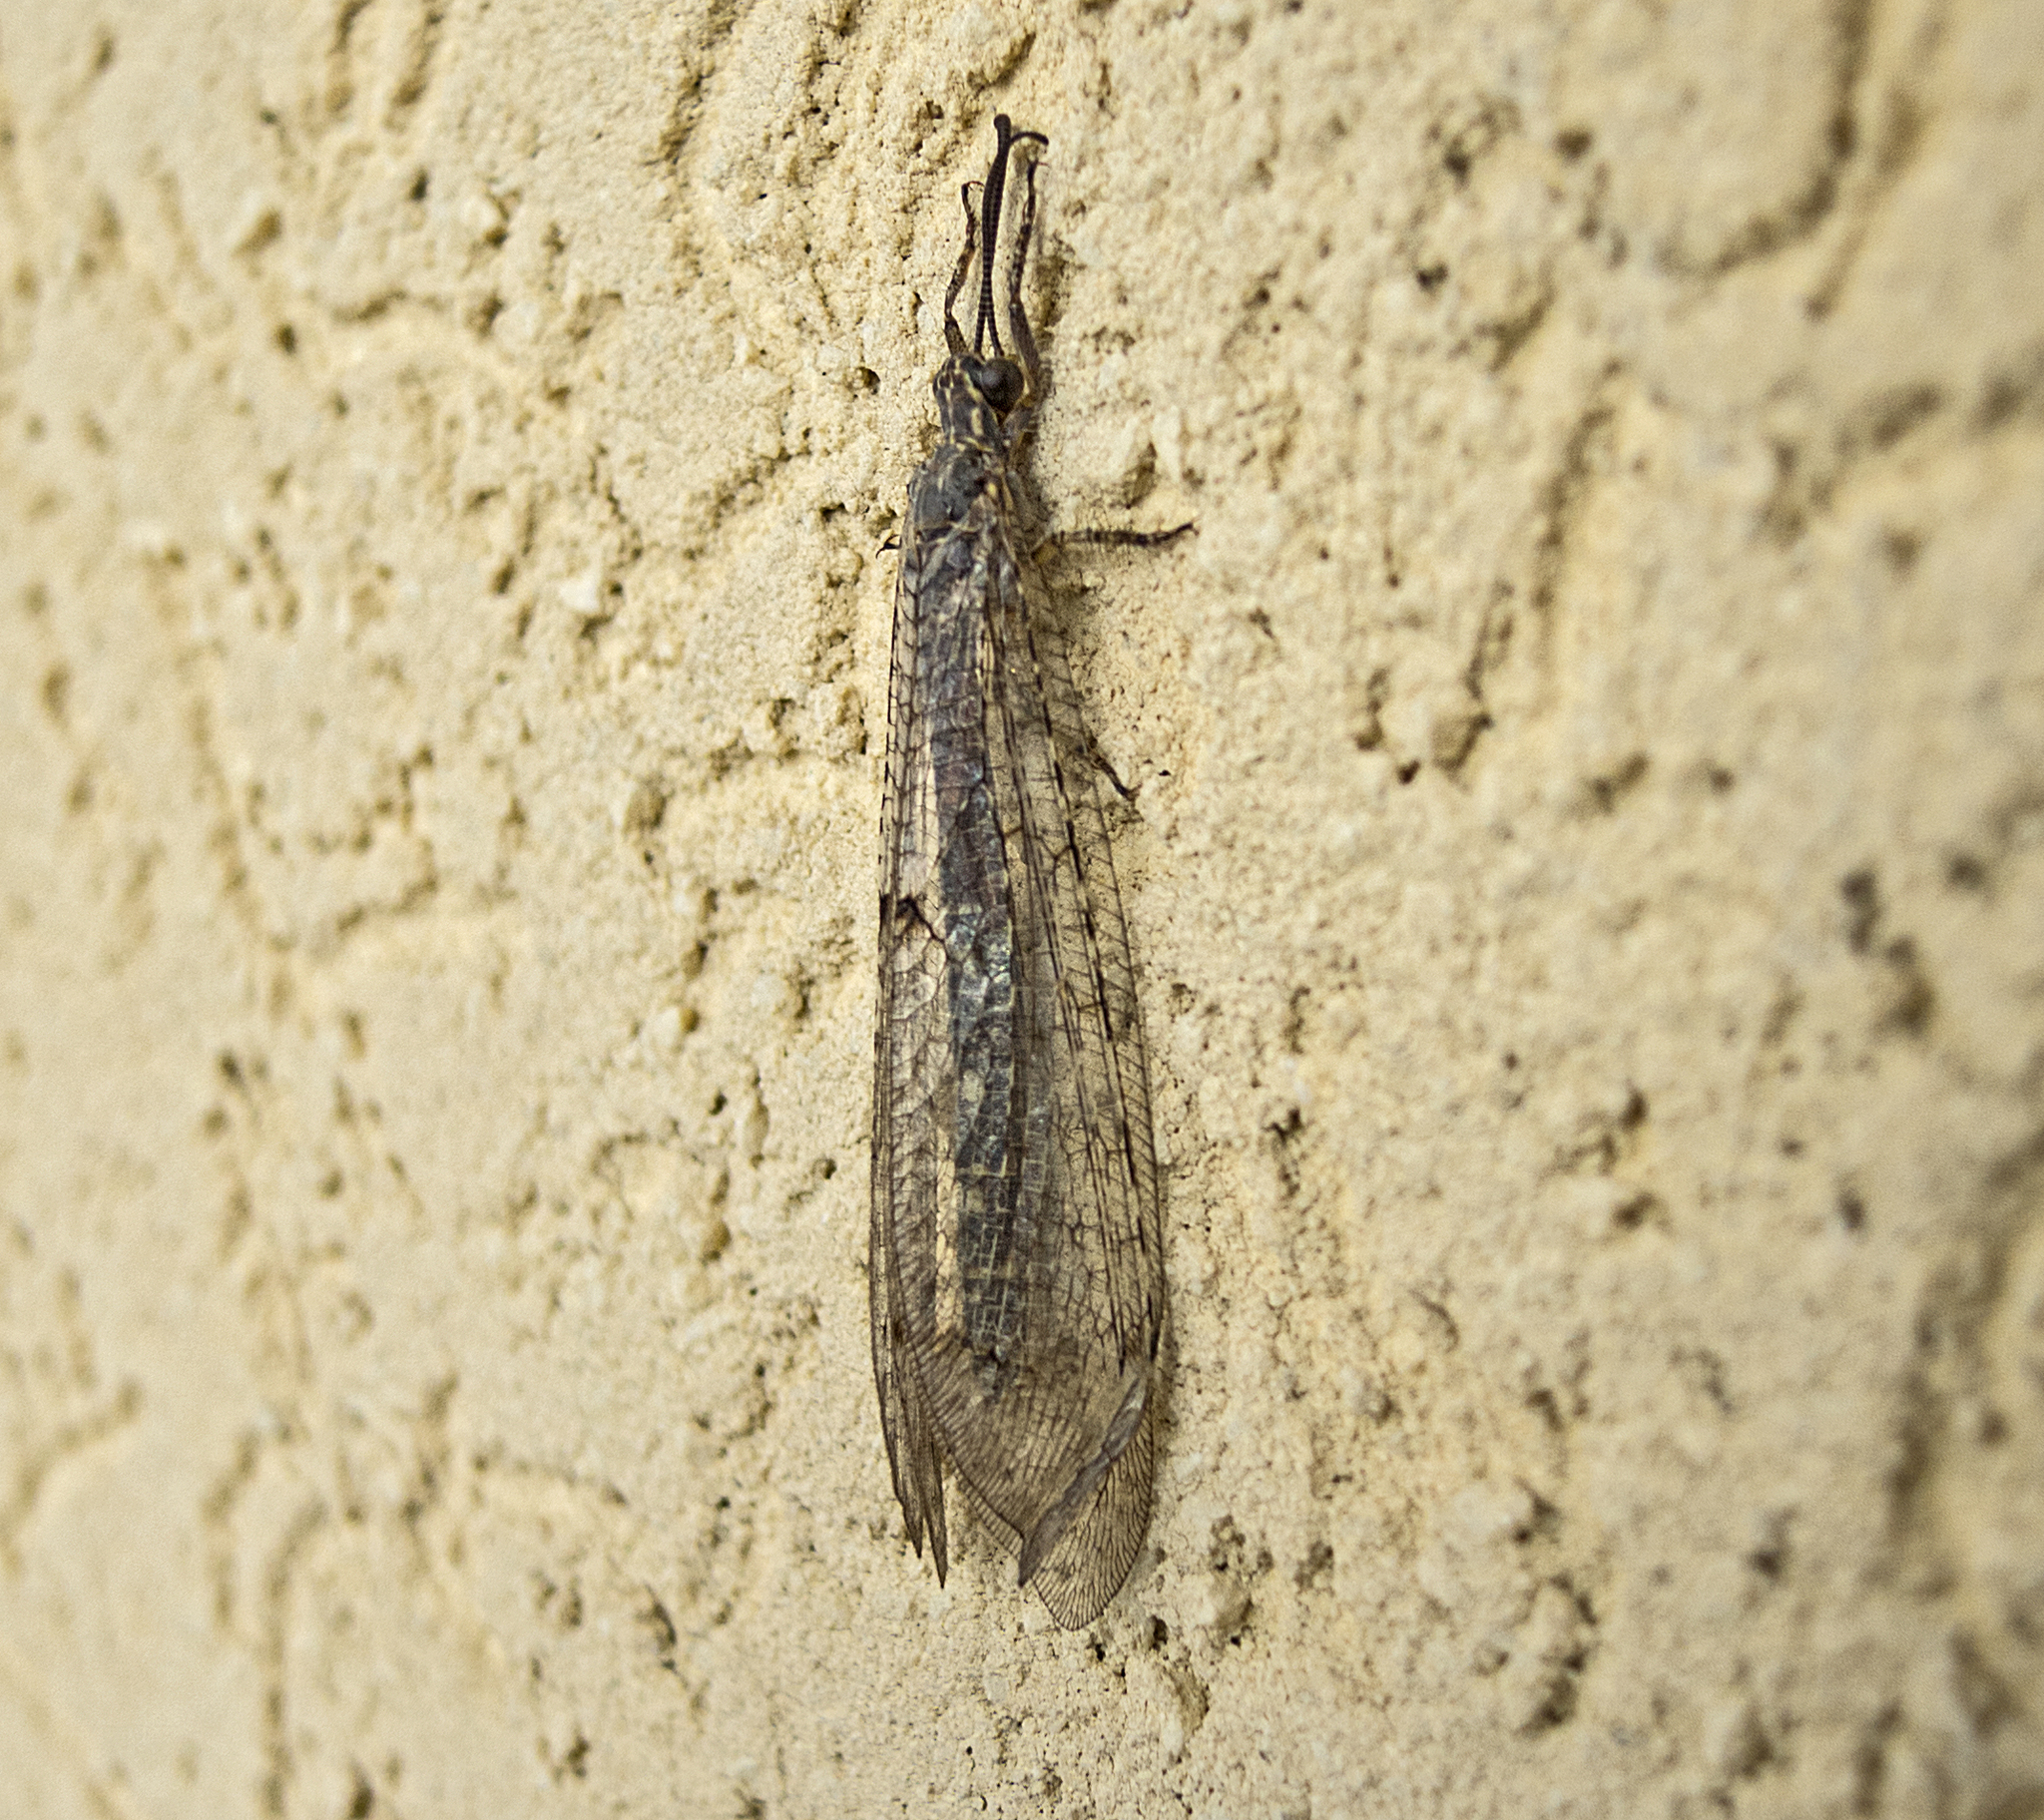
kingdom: Animalia
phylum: Arthropoda
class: Insecta
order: Neuroptera
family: Myrmeleontidae
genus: Distoleon
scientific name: Distoleon tetragrammicus
